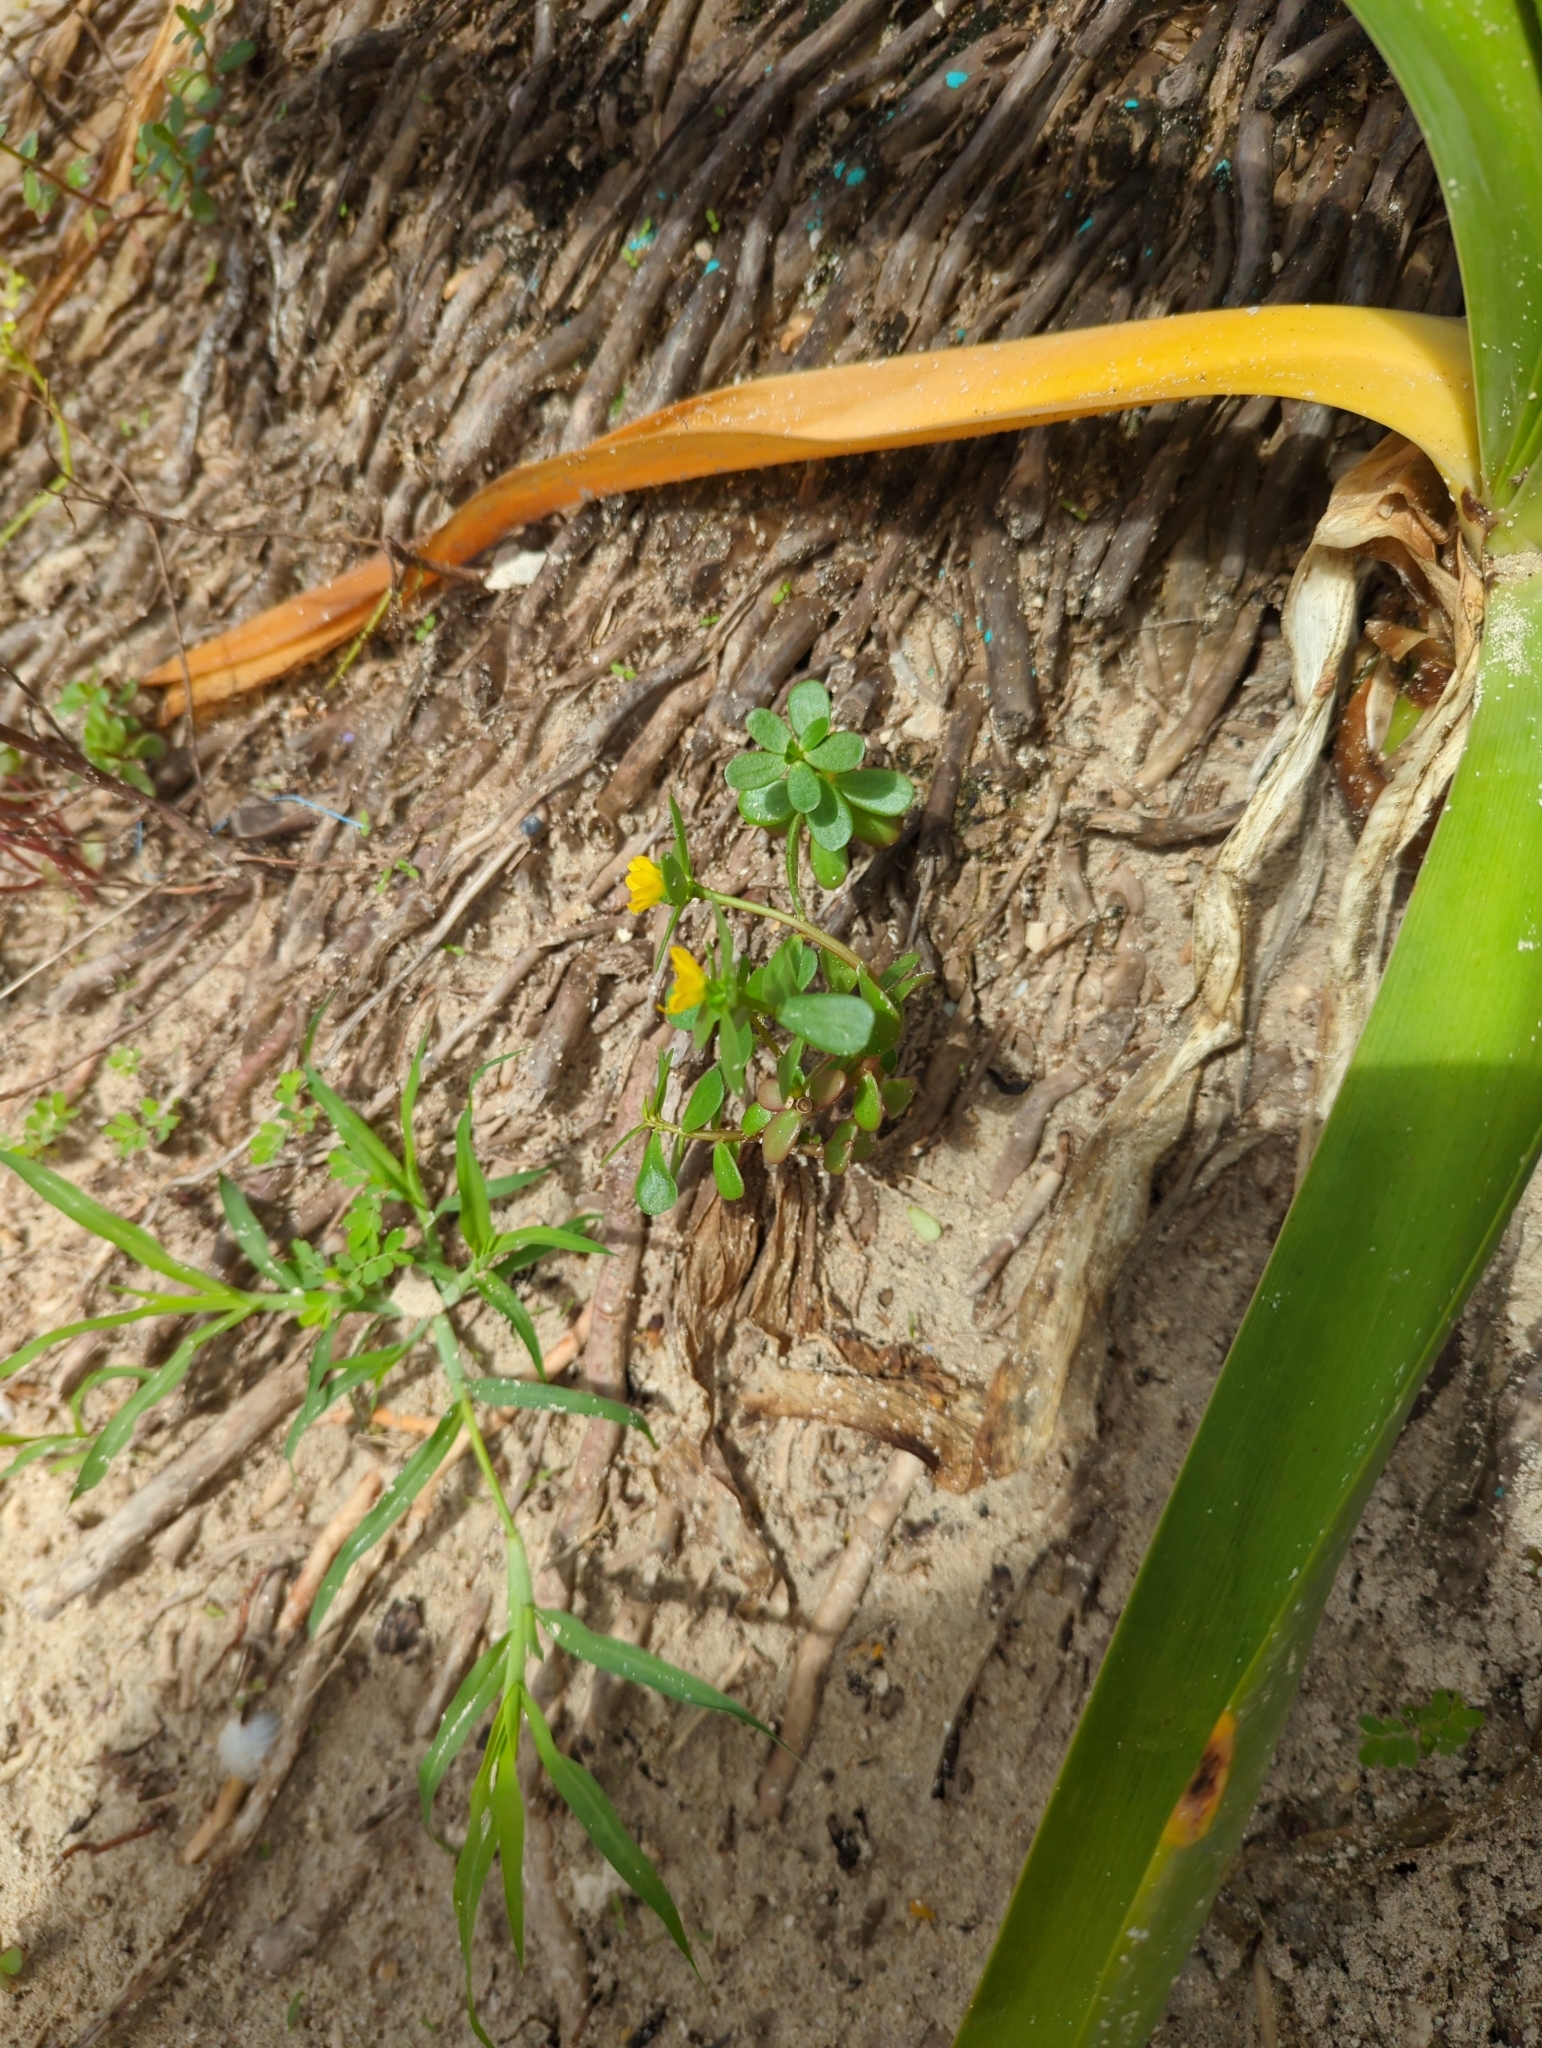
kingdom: Plantae
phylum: Tracheophyta
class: Magnoliopsida
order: Caryophyllales
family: Portulacaceae
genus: Portulaca
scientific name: Portulaca oleracea
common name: Common purslane
